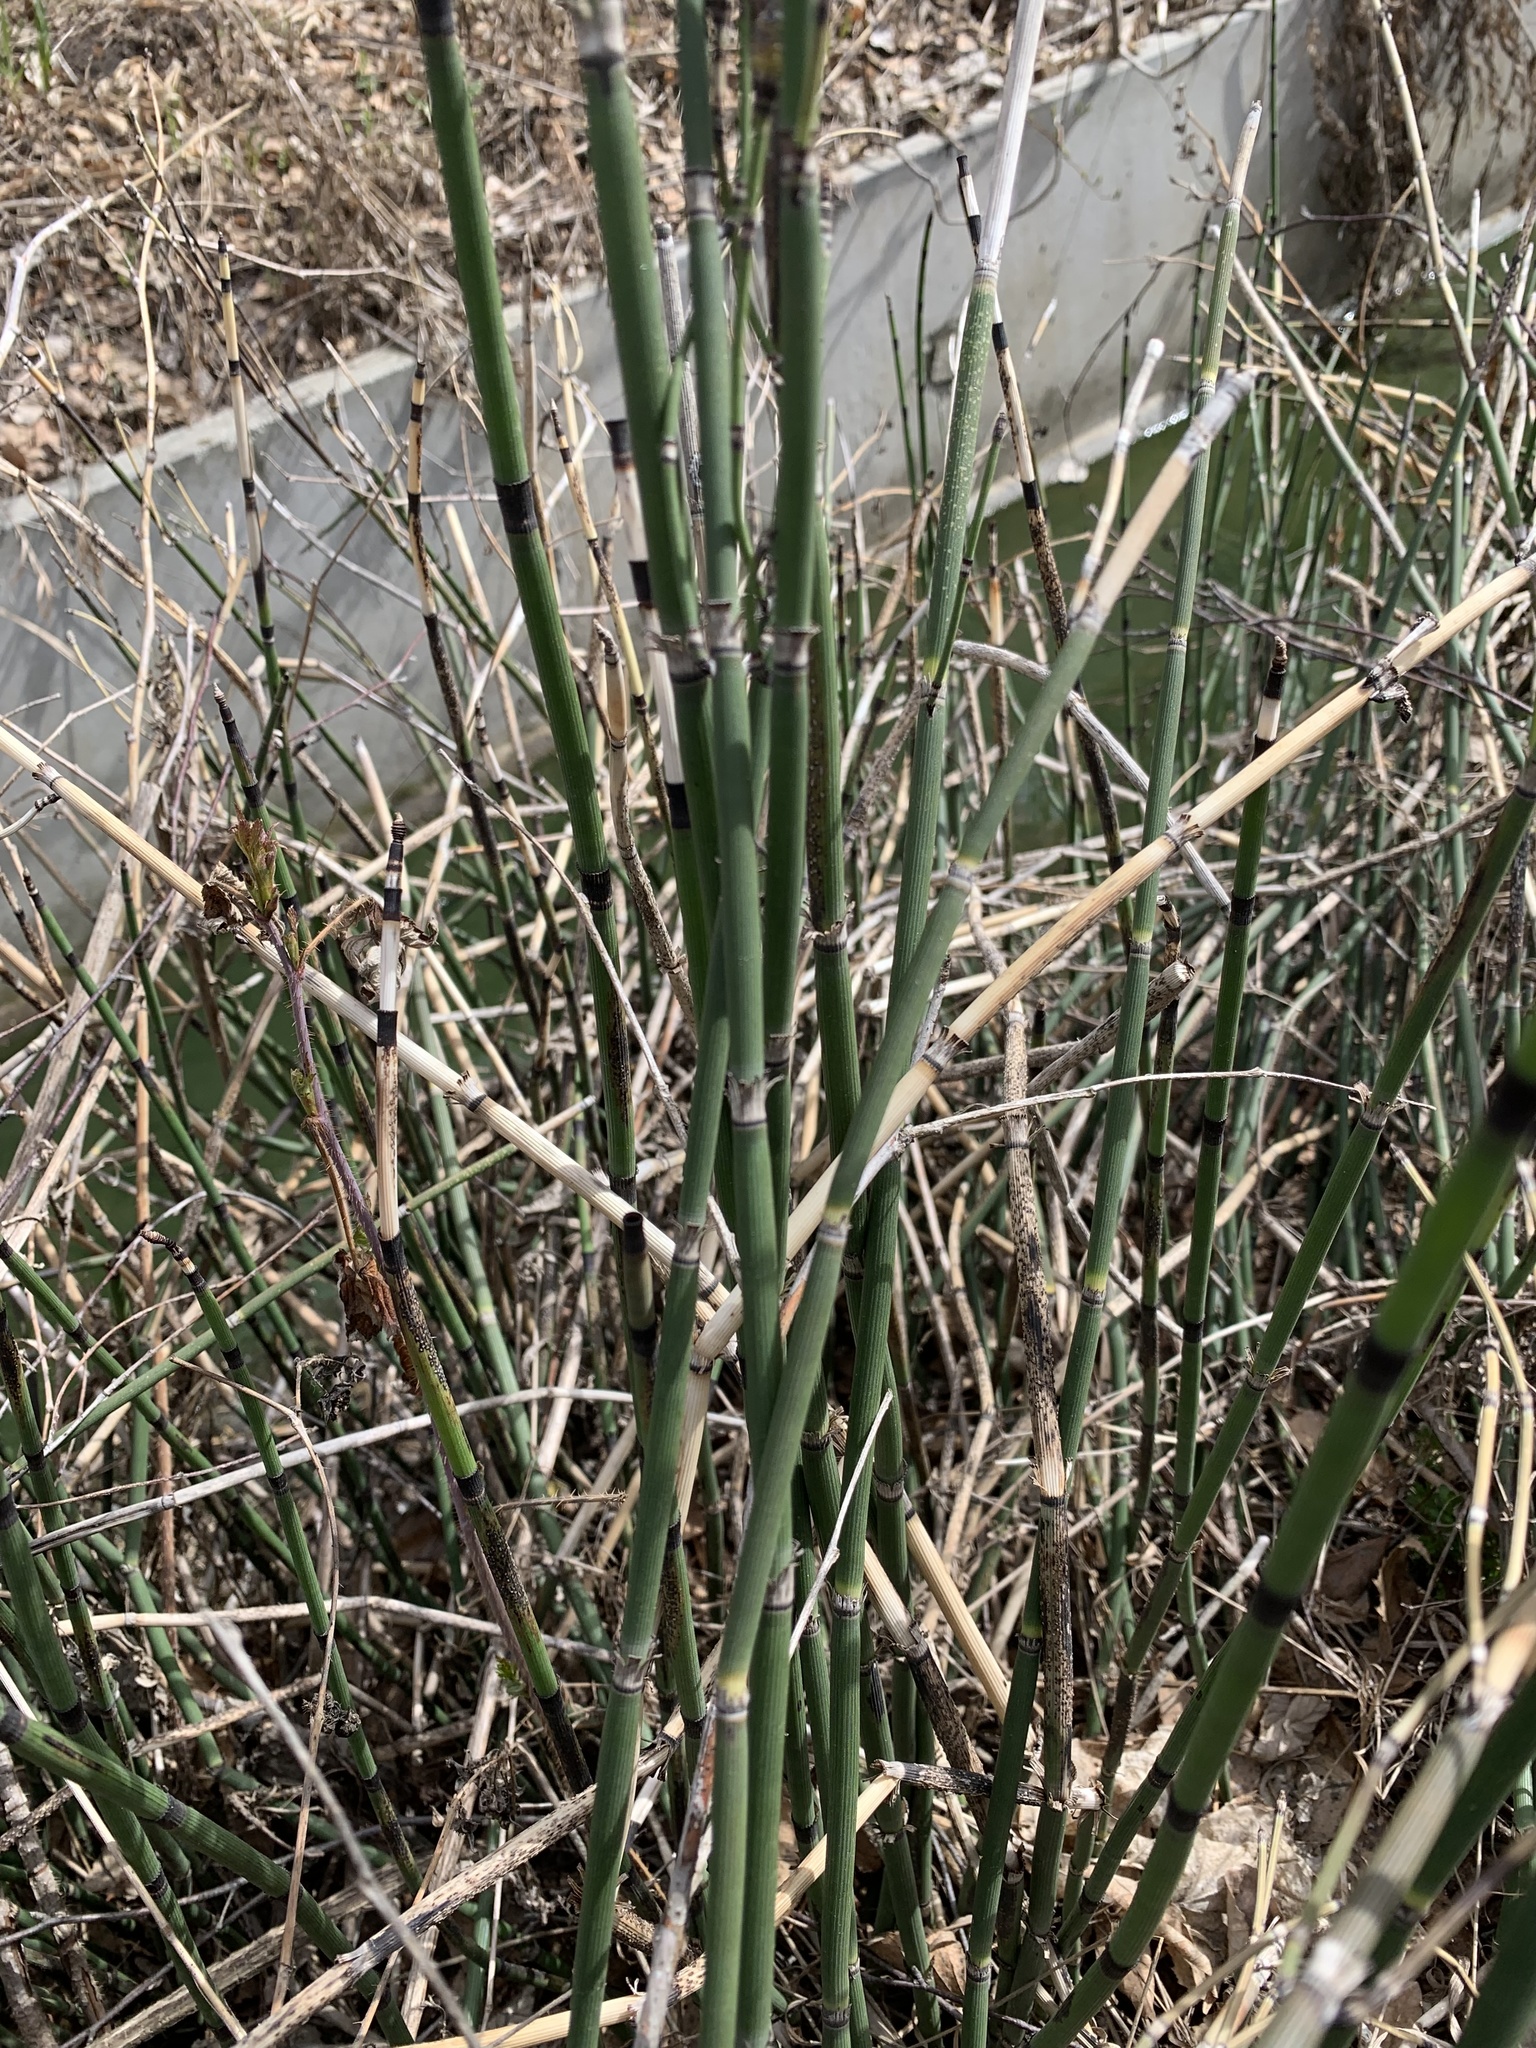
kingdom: Plantae
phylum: Tracheophyta
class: Polypodiopsida
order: Equisetales
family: Equisetaceae
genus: Equisetum
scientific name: Equisetum hyemale
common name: Rough horsetail
